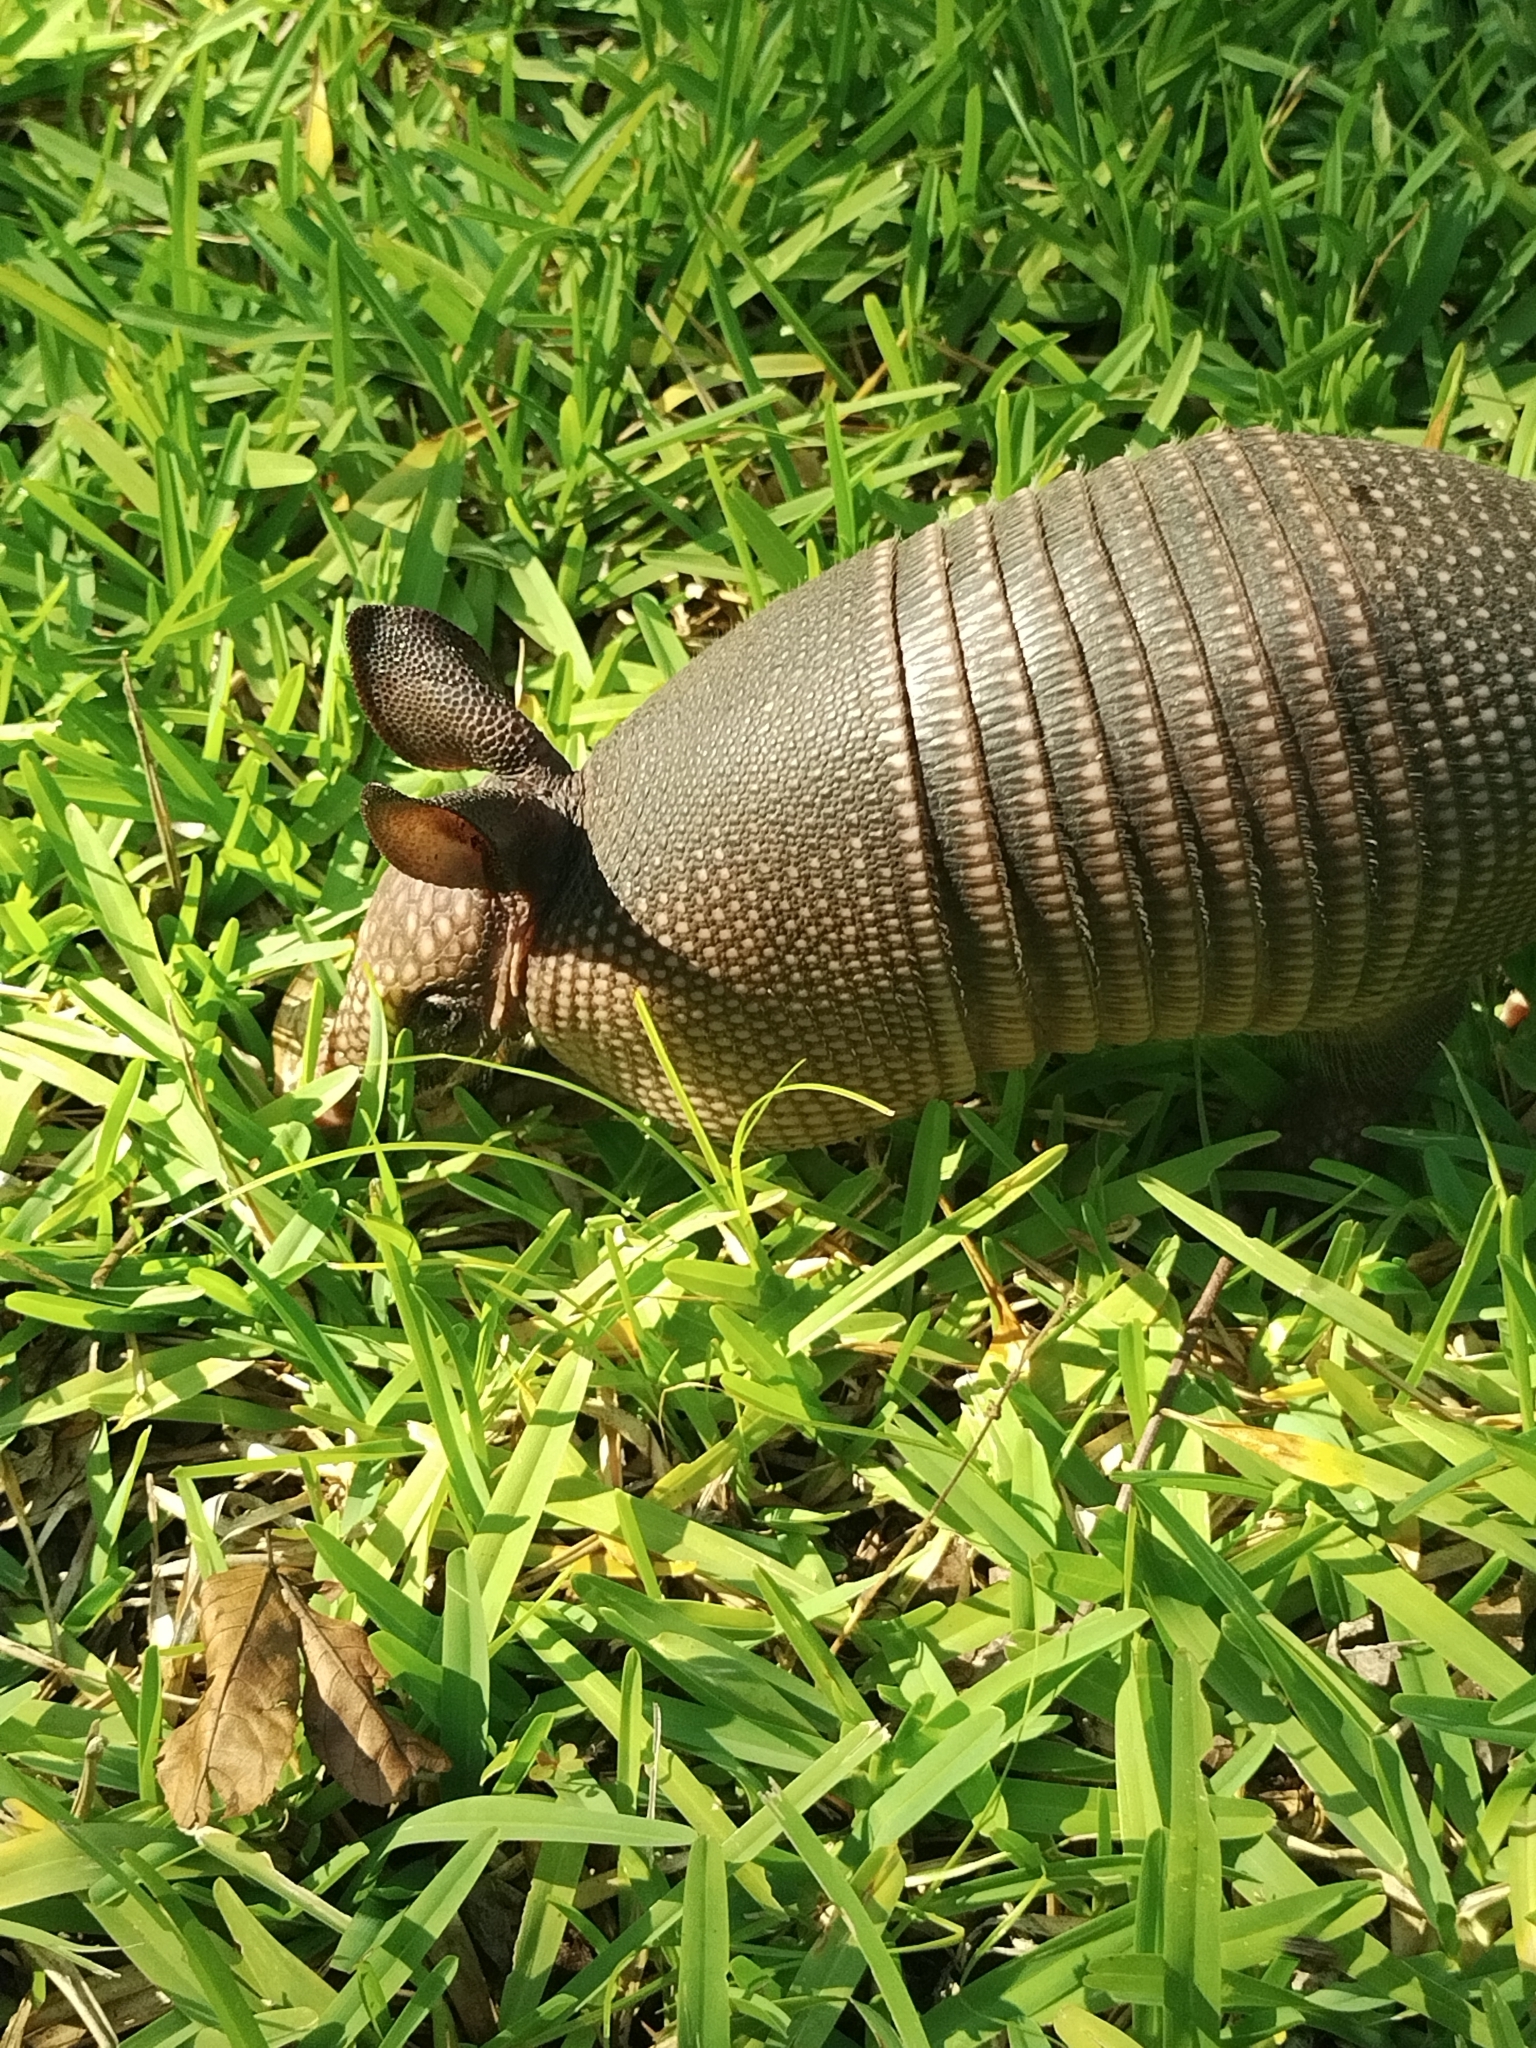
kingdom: Animalia
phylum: Chordata
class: Mammalia
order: Cingulata
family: Dasypodidae
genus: Dasypus
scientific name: Dasypus novemcinctus
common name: Nine-banded armadillo
